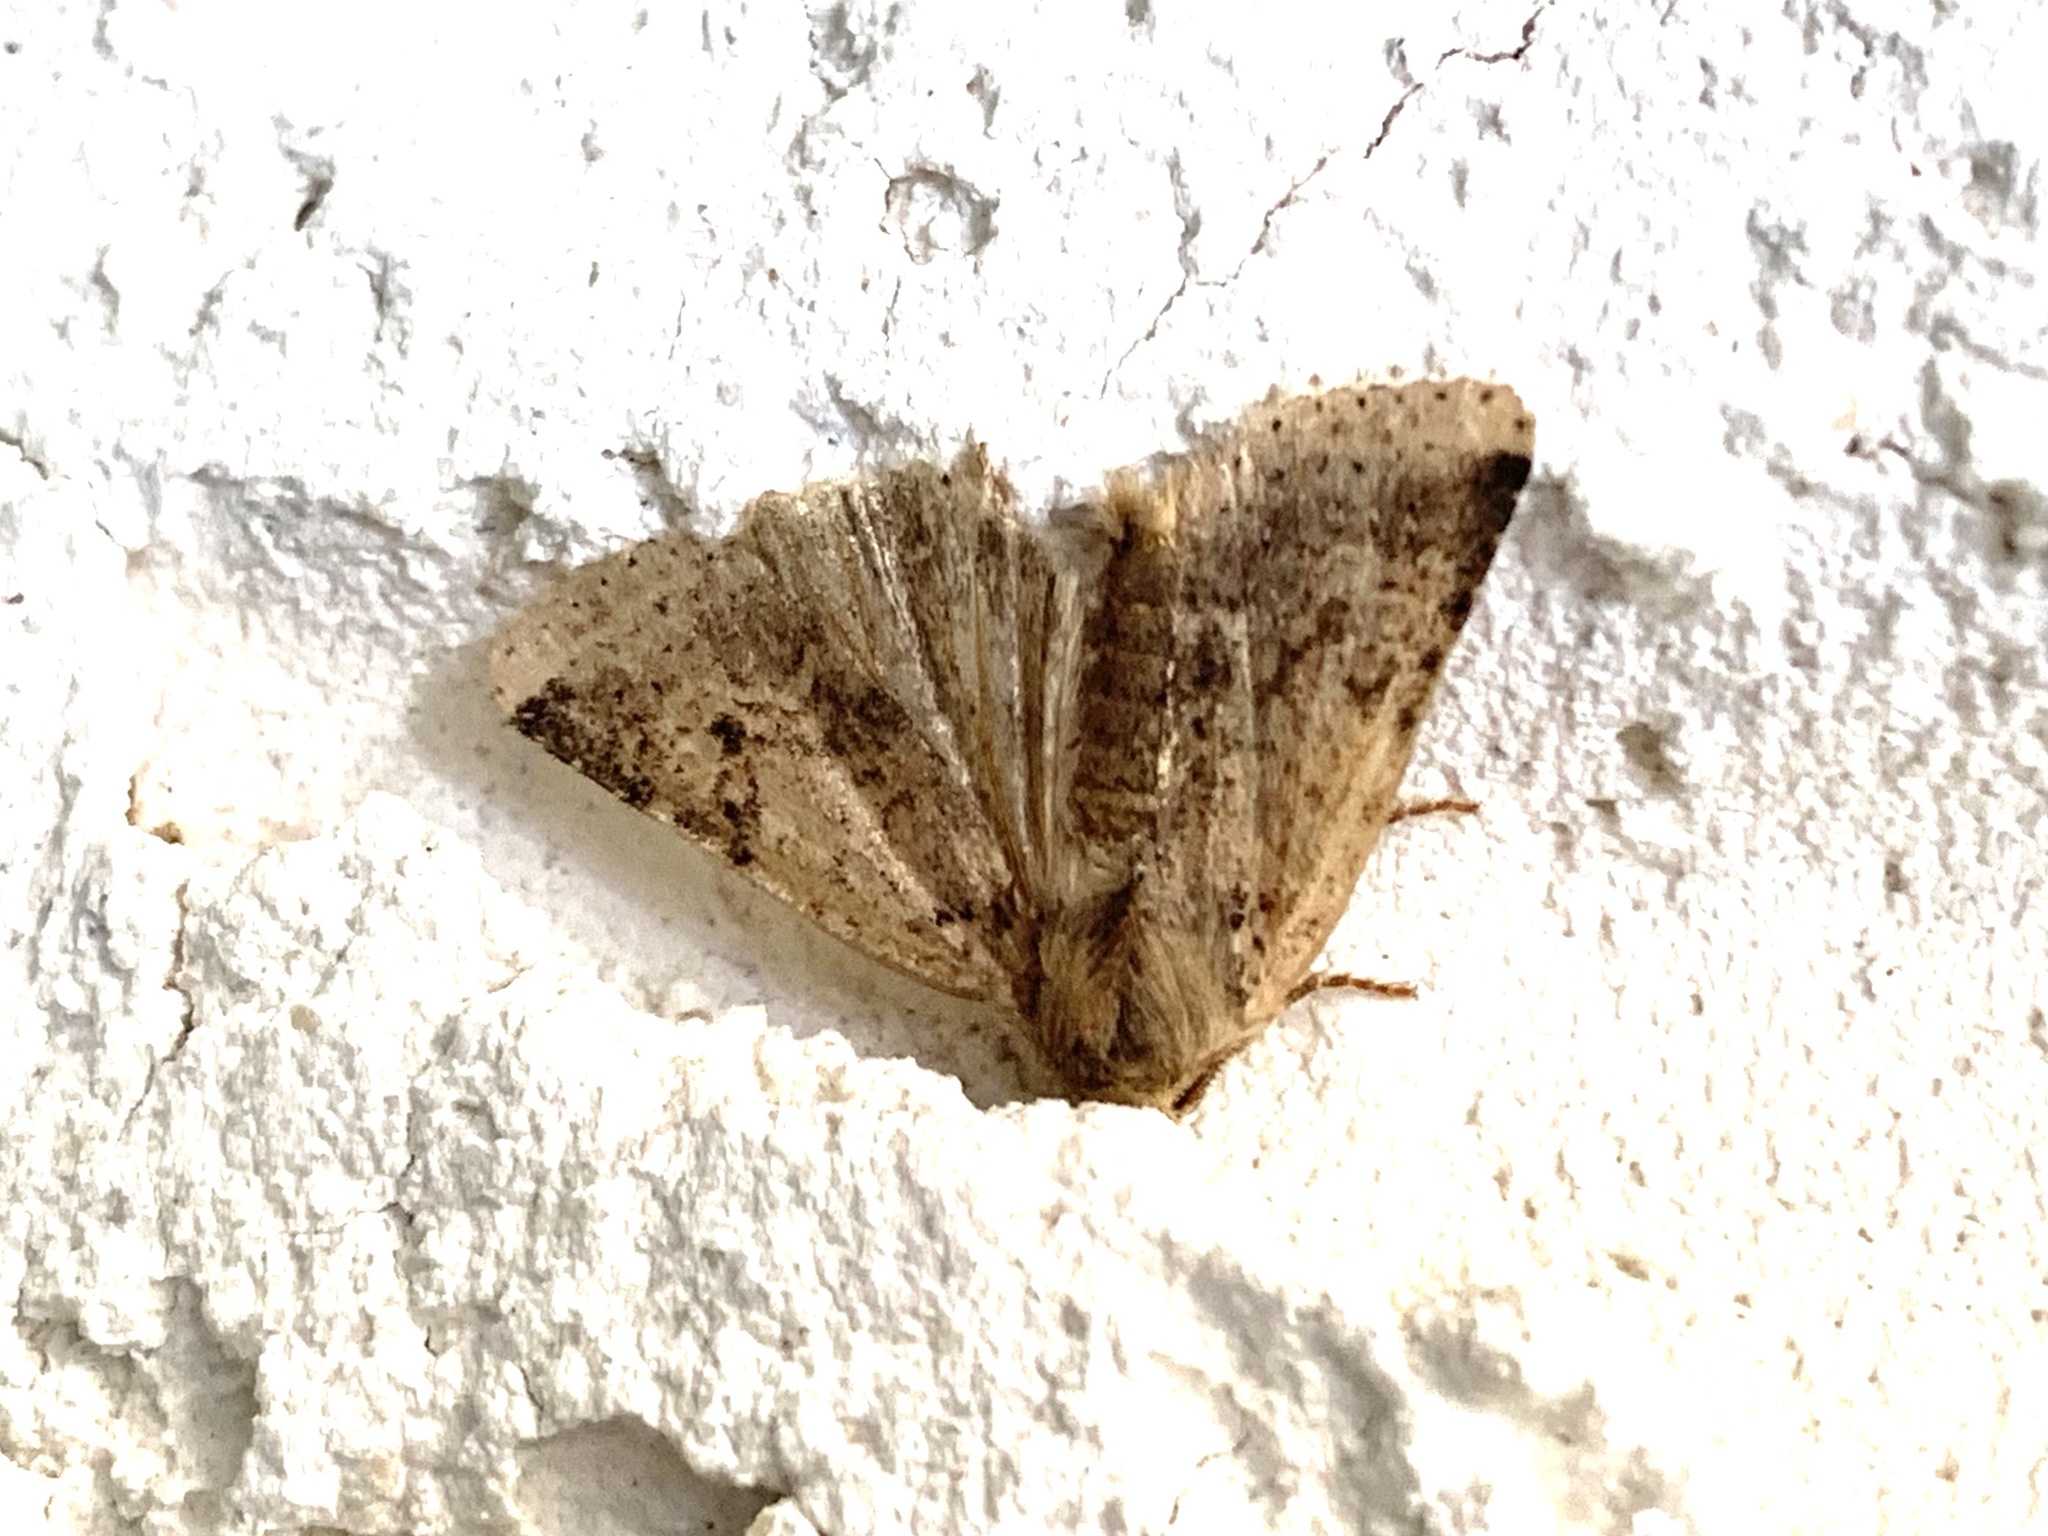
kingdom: Animalia
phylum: Arthropoda
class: Insecta
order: Lepidoptera
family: Noctuidae
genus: Agrochola
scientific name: Agrochola
